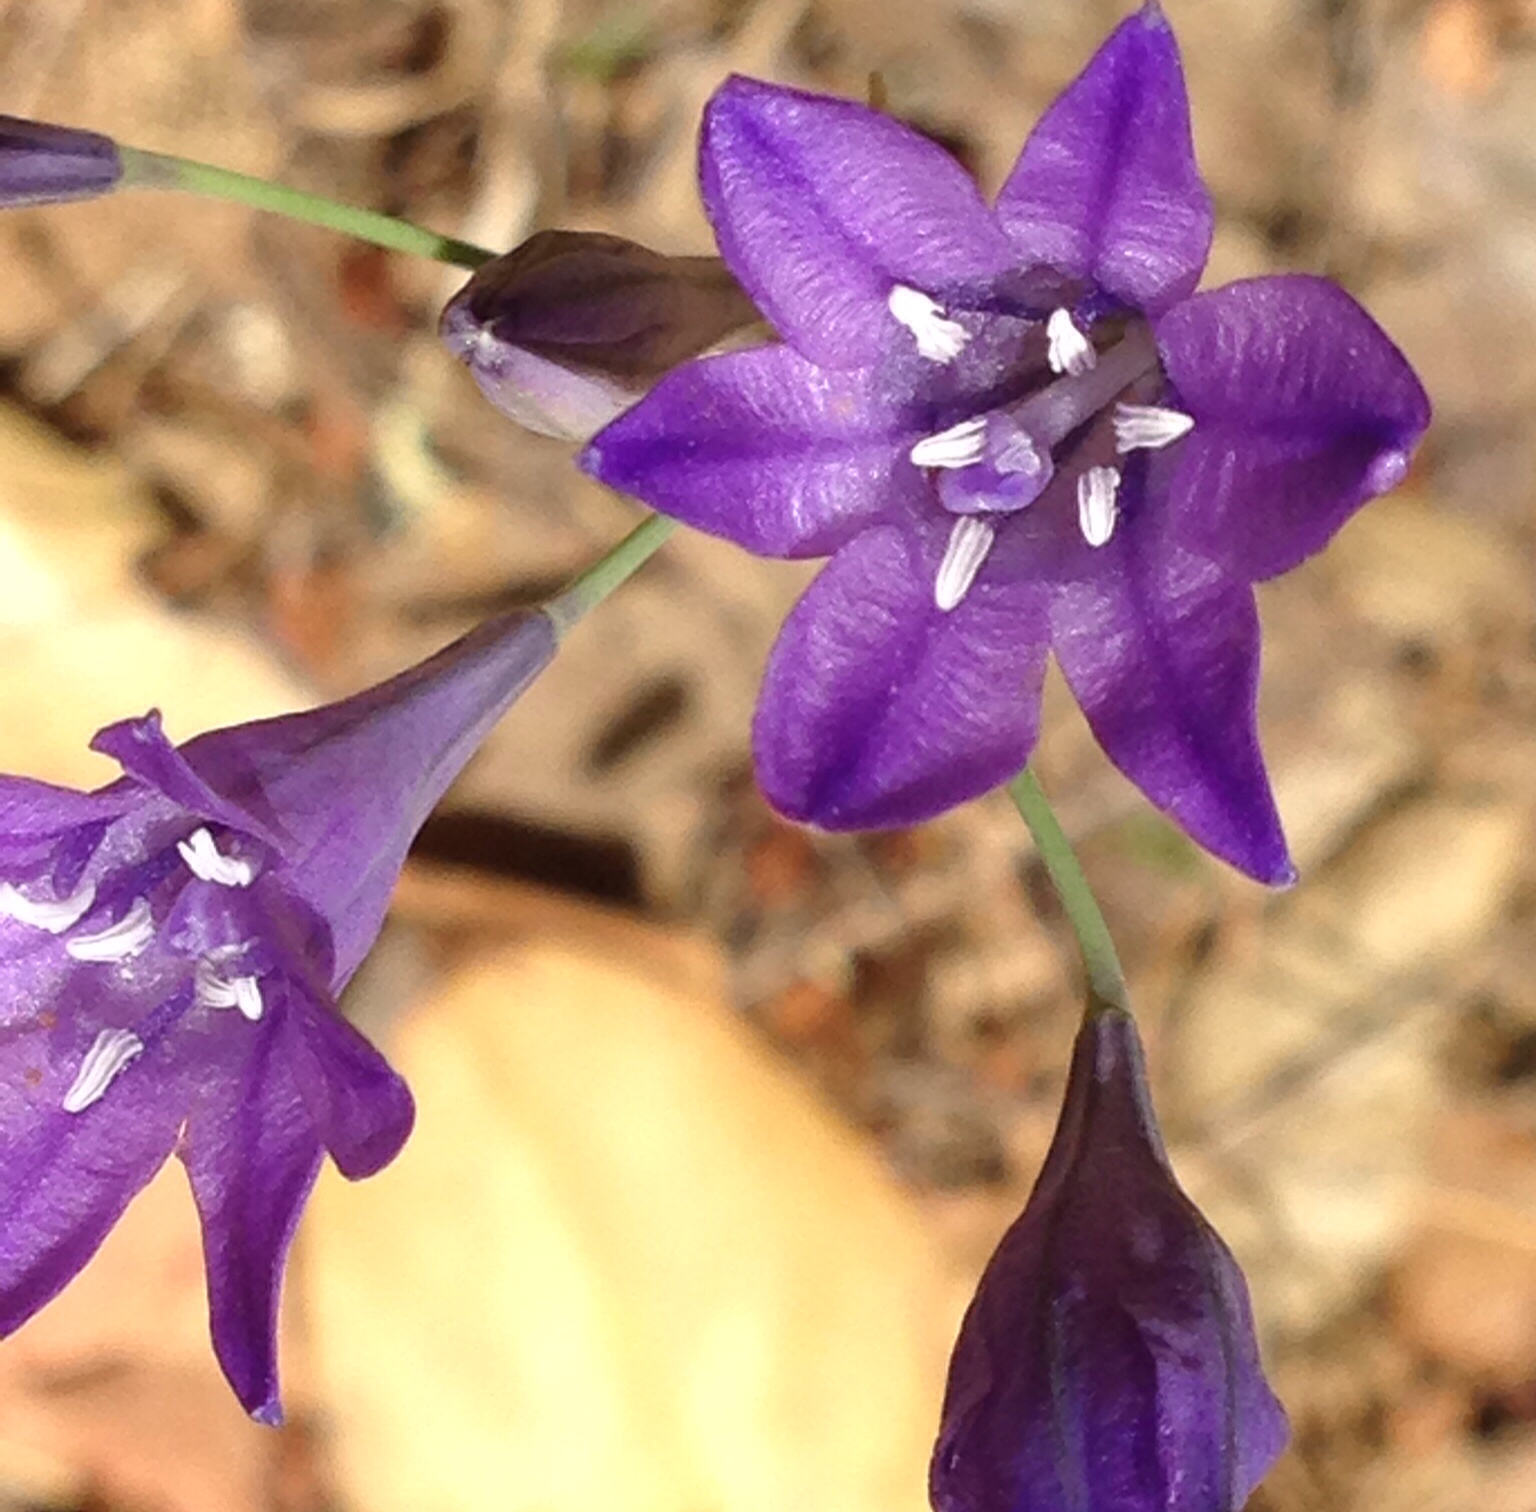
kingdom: Plantae
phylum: Tracheophyta
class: Liliopsida
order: Asparagales
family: Asparagaceae
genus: Triteleia
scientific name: Triteleia laxa
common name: Triplet-lily
